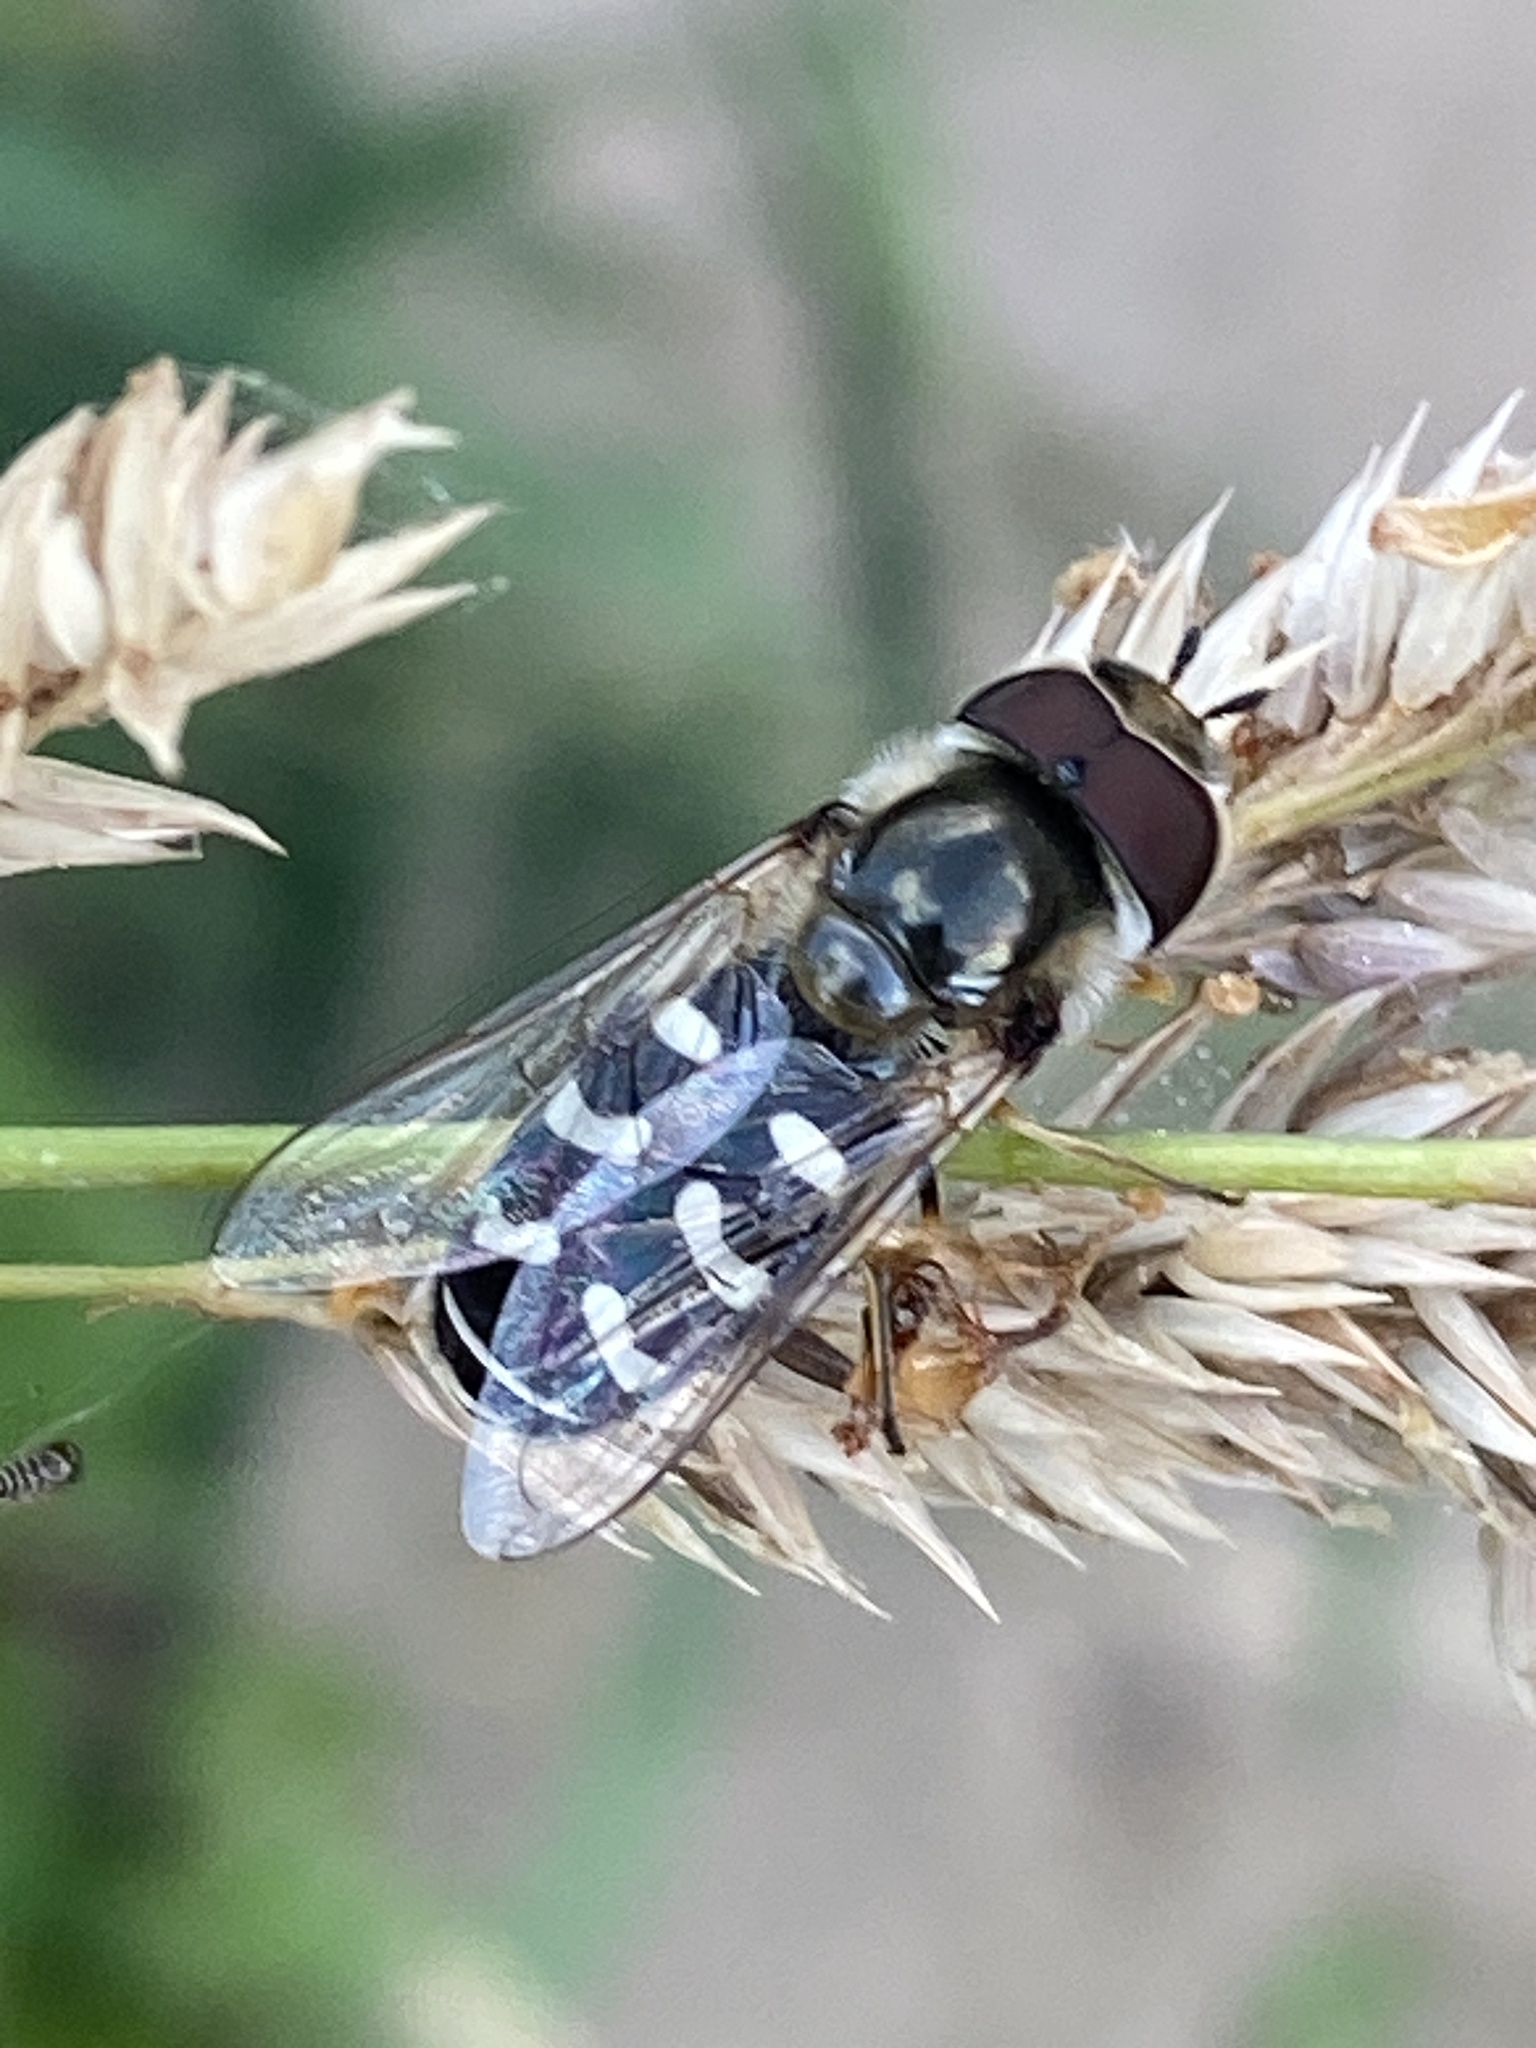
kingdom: Animalia
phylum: Arthropoda
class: Insecta
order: Diptera
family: Syrphidae
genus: Scaeva
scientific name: Scaeva pyrastri
